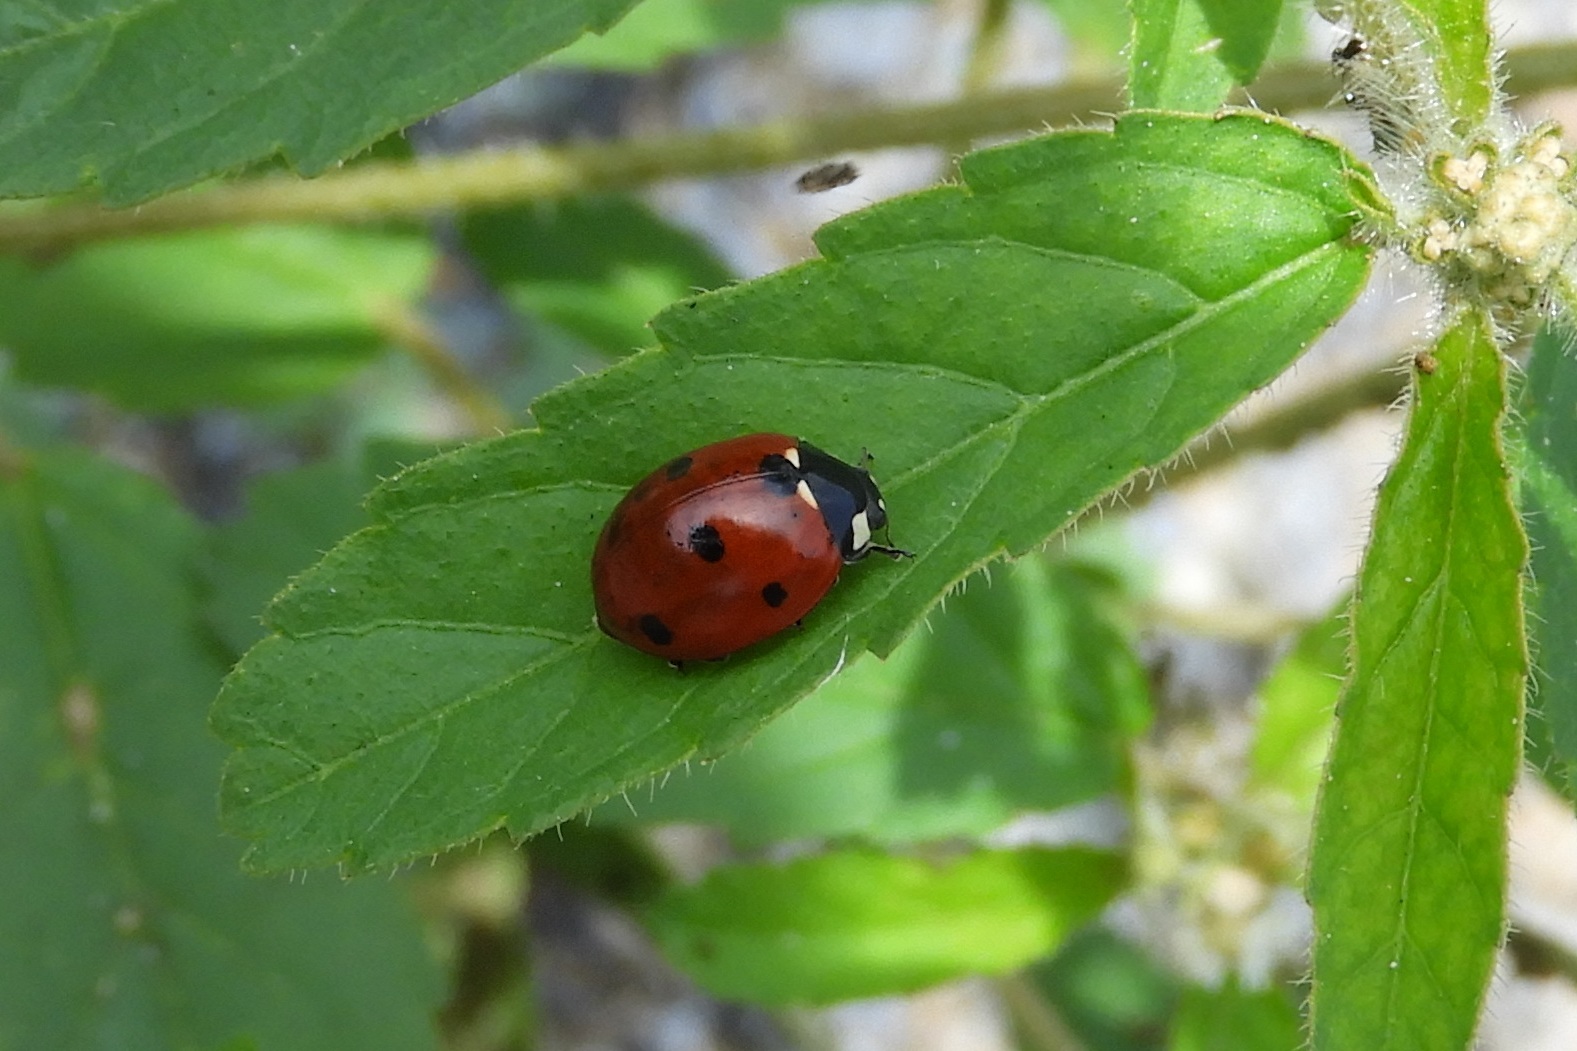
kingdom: Animalia
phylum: Arthropoda
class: Insecta
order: Coleoptera
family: Coccinellidae
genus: Coccinella
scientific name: Coccinella septempunctata
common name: Sevenspotted lady beetle
